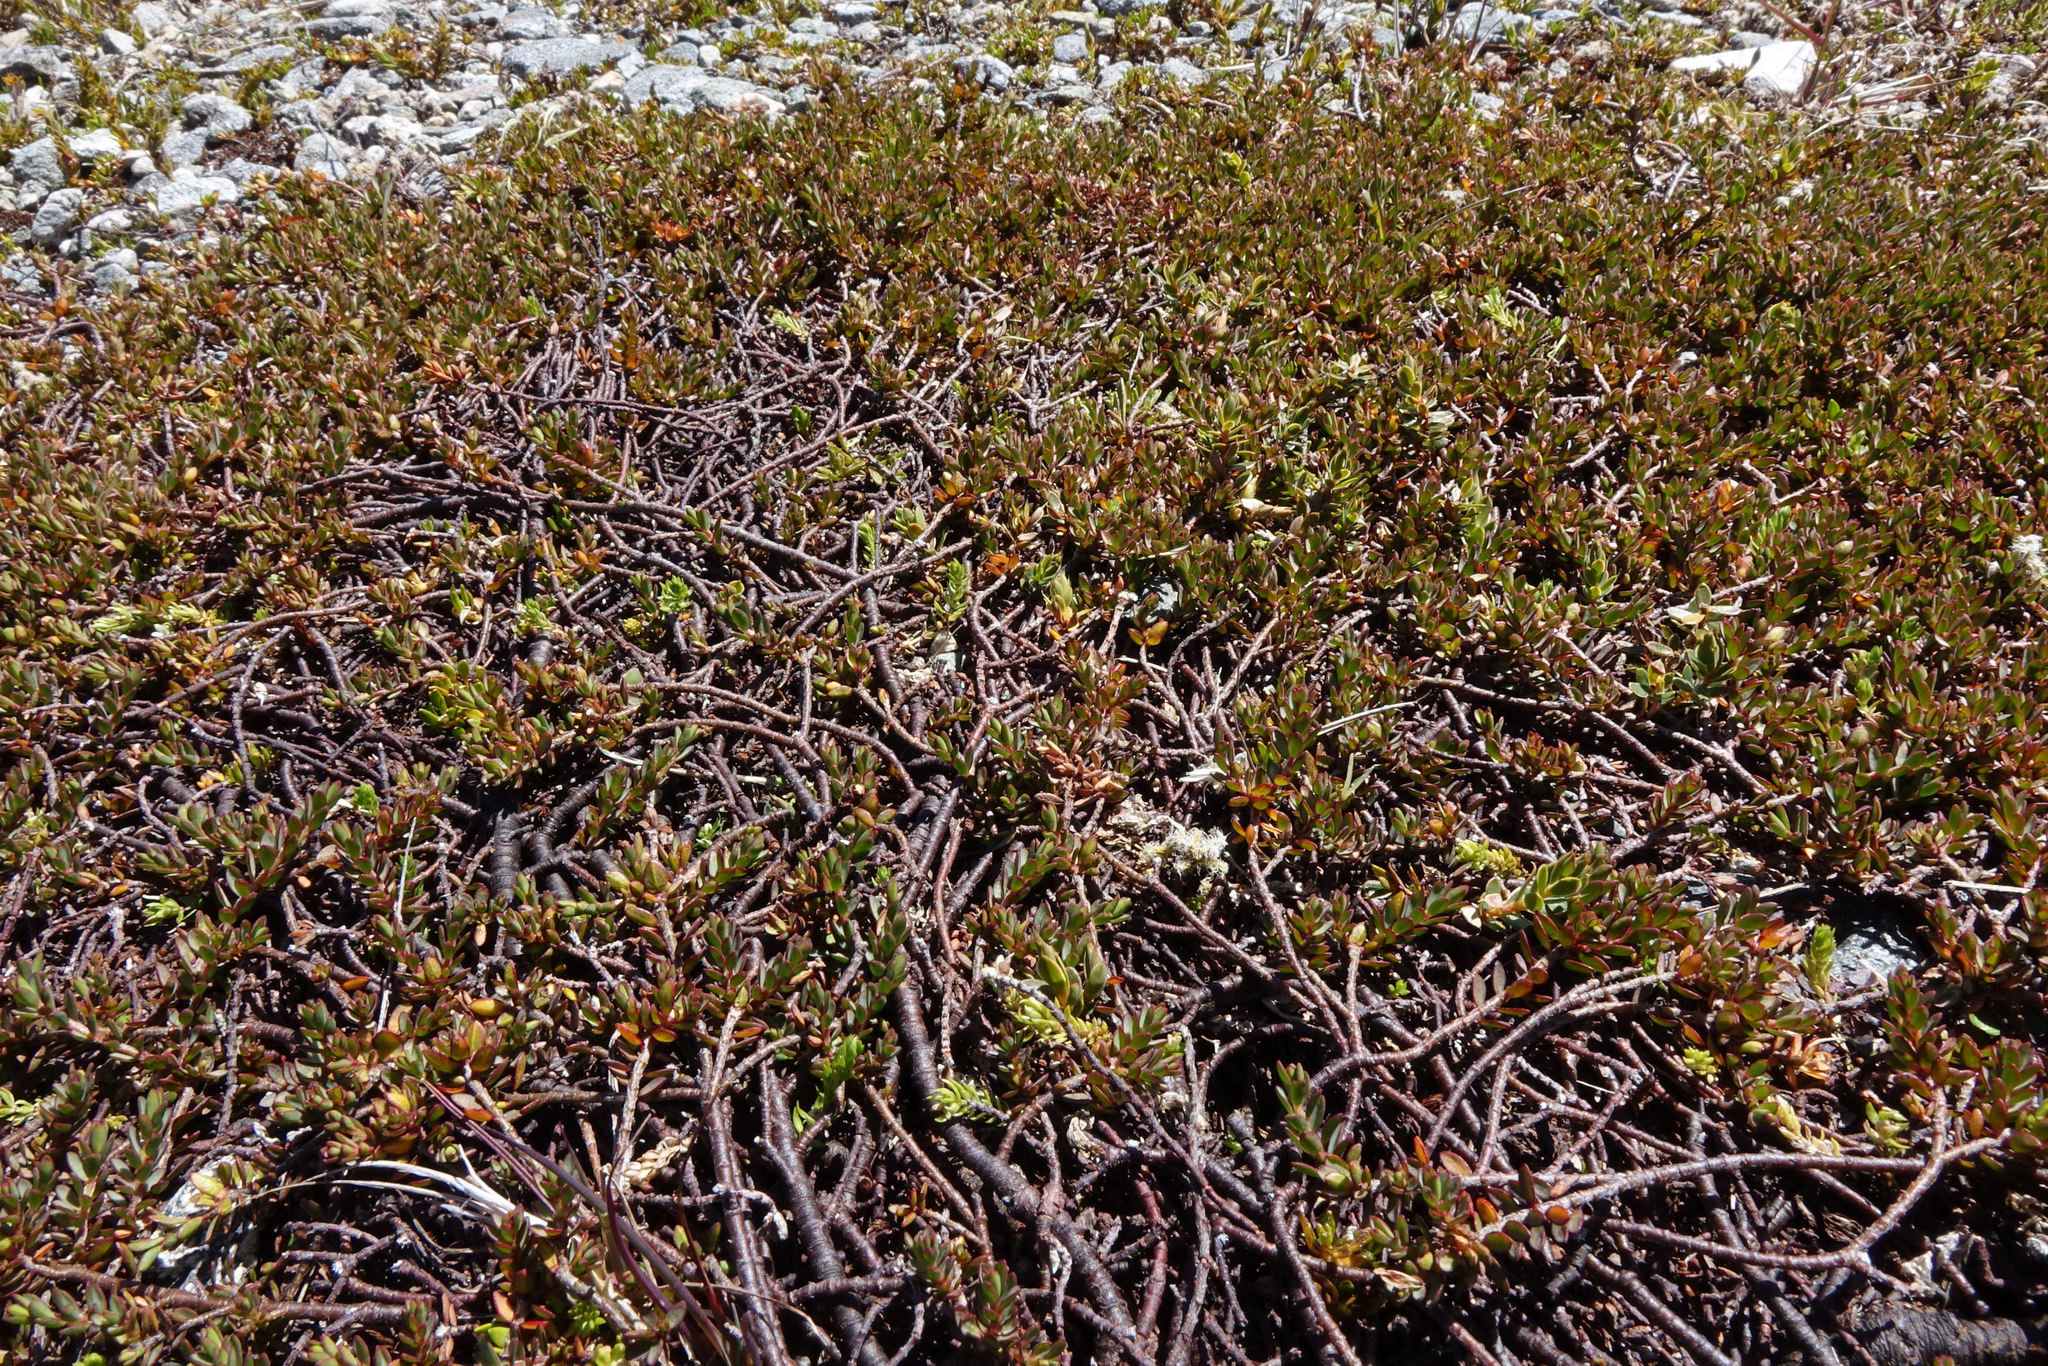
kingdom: Plantae
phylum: Tracheophyta
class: Magnoliopsida
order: Malvales
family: Thymelaeaceae
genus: Pimelea
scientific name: Pimelea prostrata
